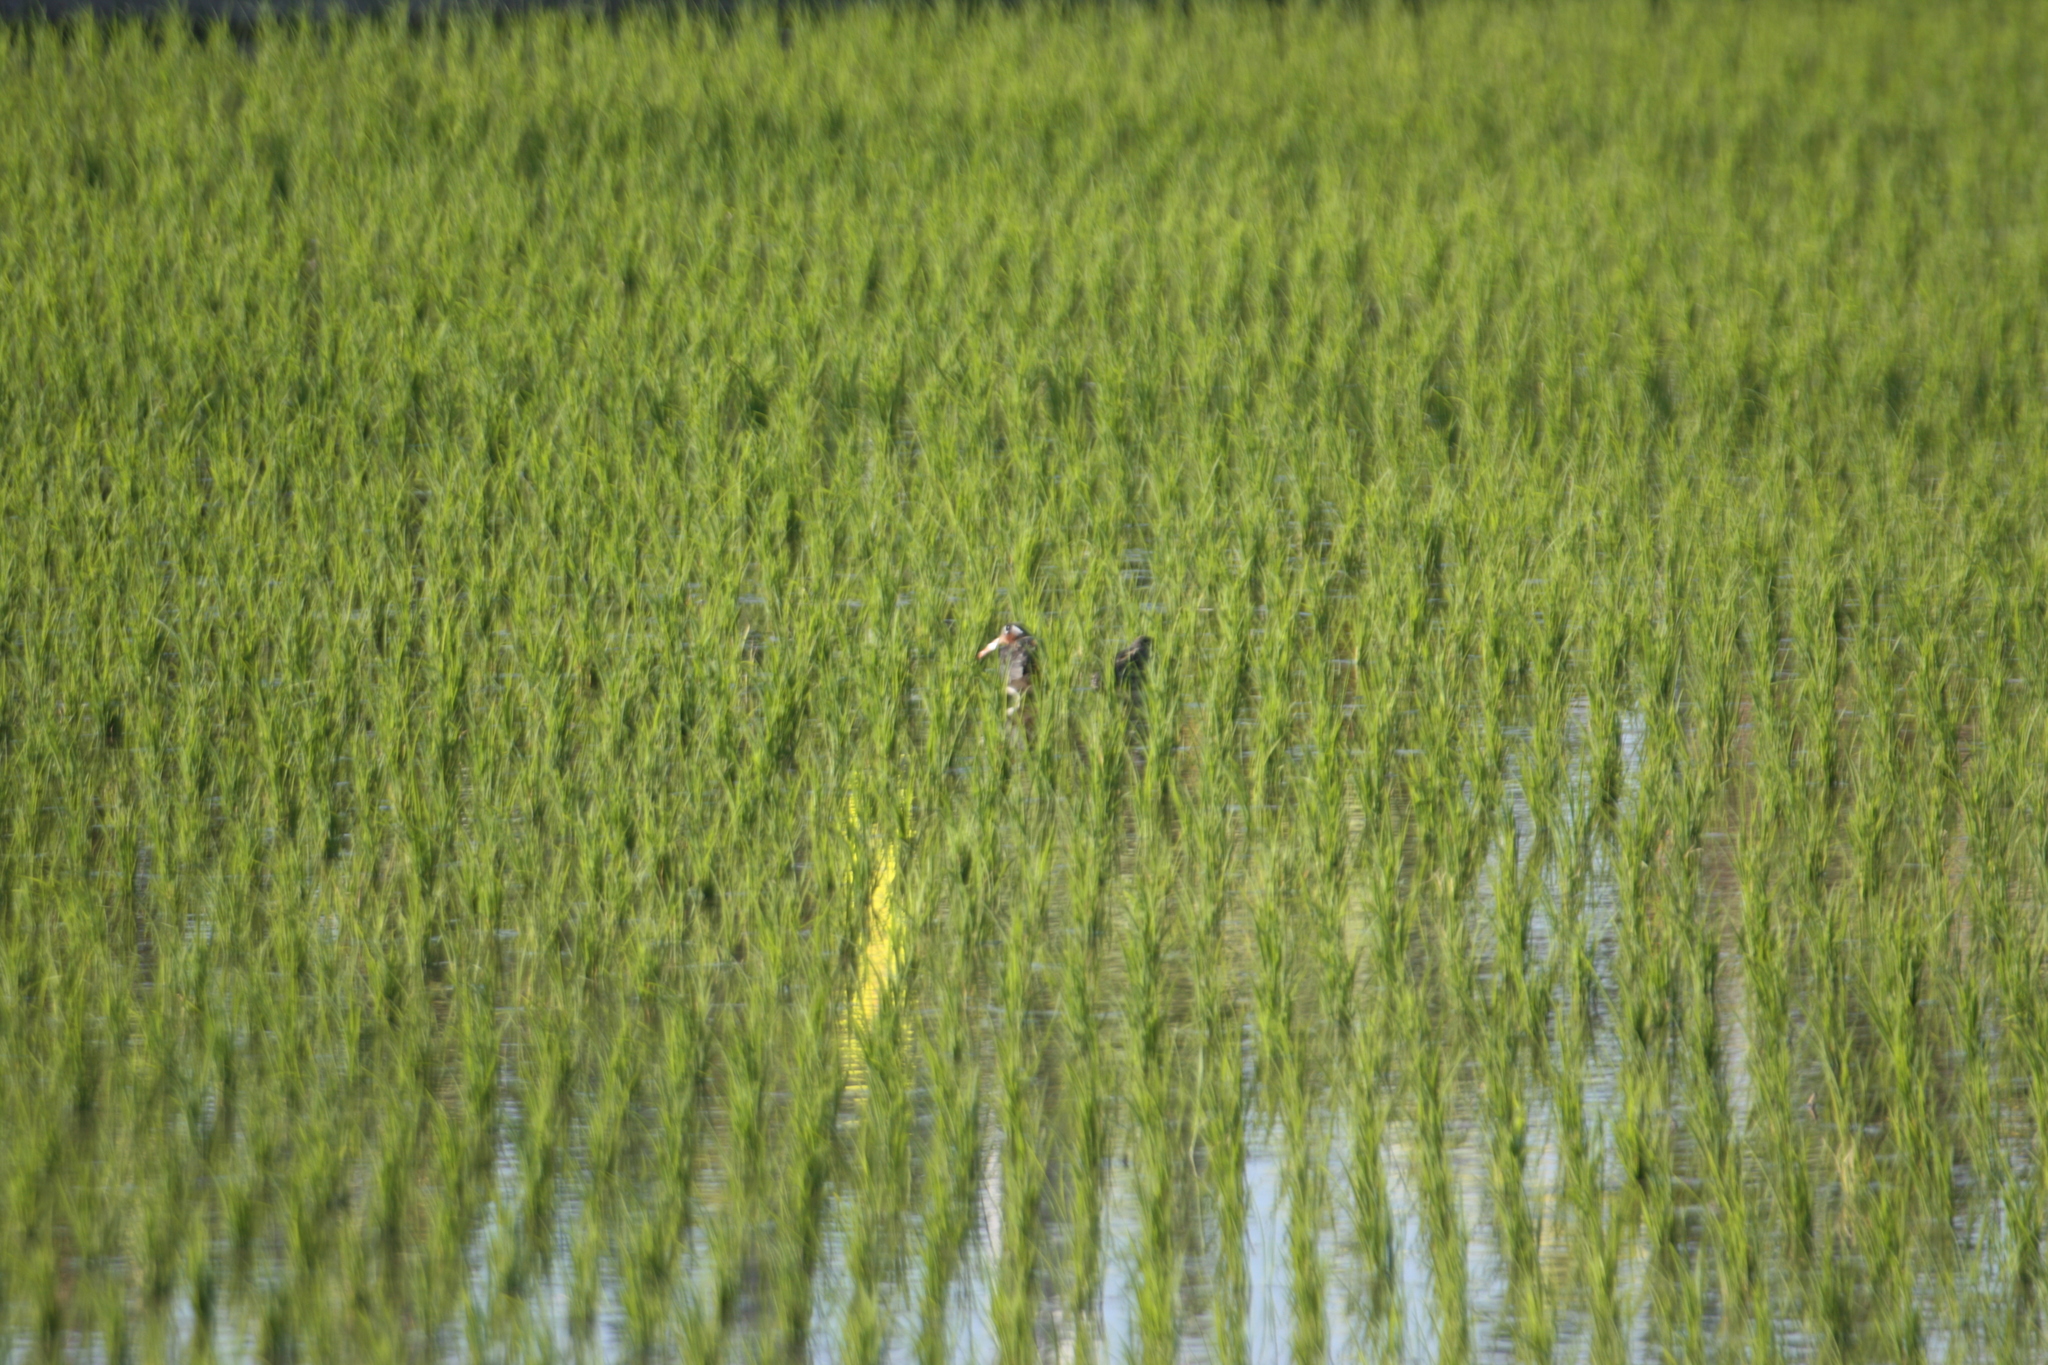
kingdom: Animalia
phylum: Chordata
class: Aves
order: Charadriiformes
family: Rostratulidae
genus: Rostratula
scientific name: Rostratula benghalensis
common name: Greater painted-snipe
